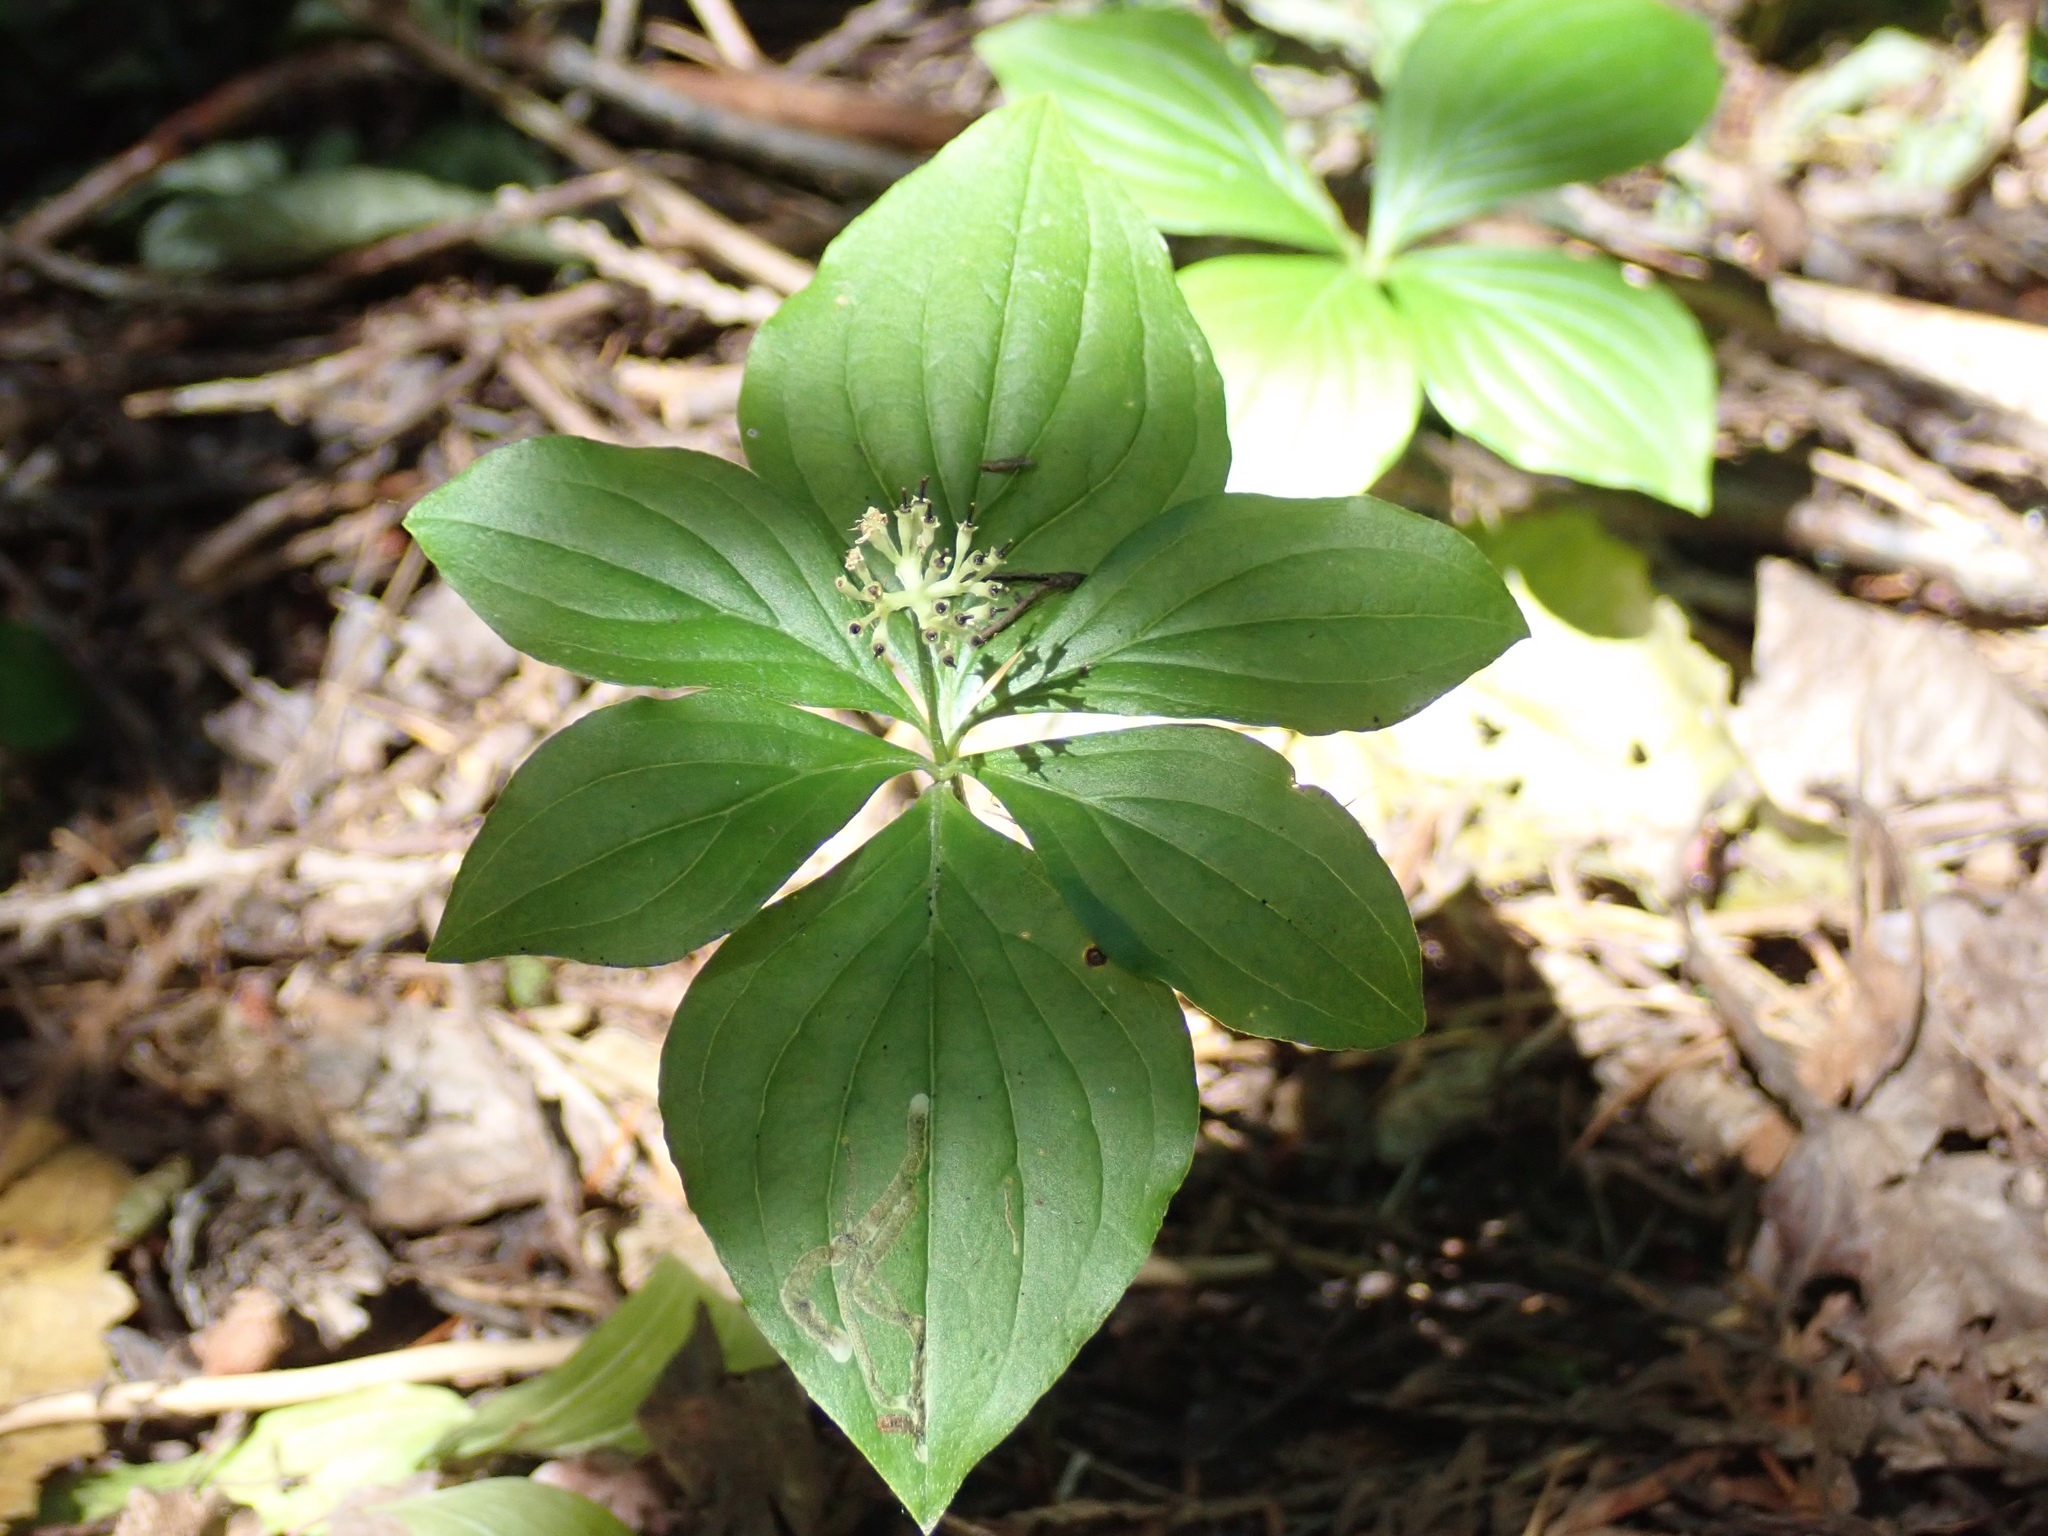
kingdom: Plantae
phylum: Tracheophyta
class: Magnoliopsida
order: Cornales
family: Cornaceae
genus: Cornus
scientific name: Cornus unalaschkensis
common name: Alaska bunchberry
